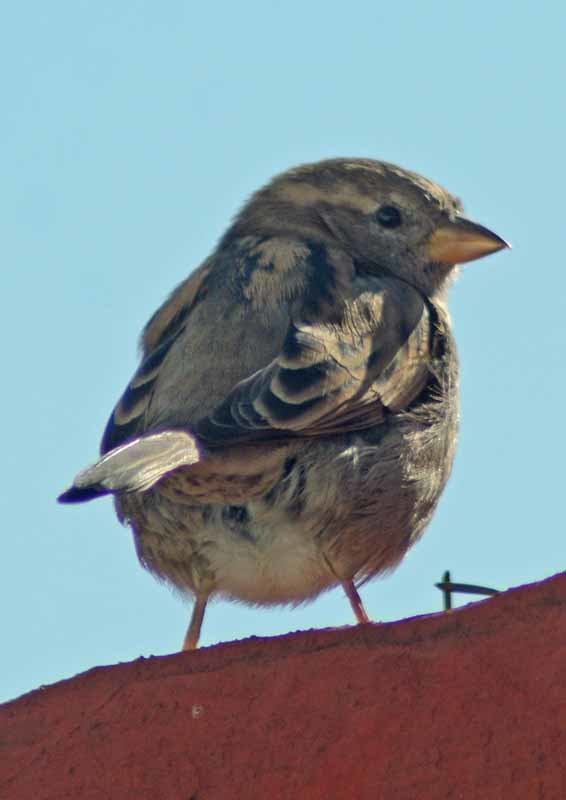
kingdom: Animalia
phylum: Chordata
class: Aves
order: Passeriformes
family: Passeridae
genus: Passer
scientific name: Passer domesticus
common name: House sparrow
